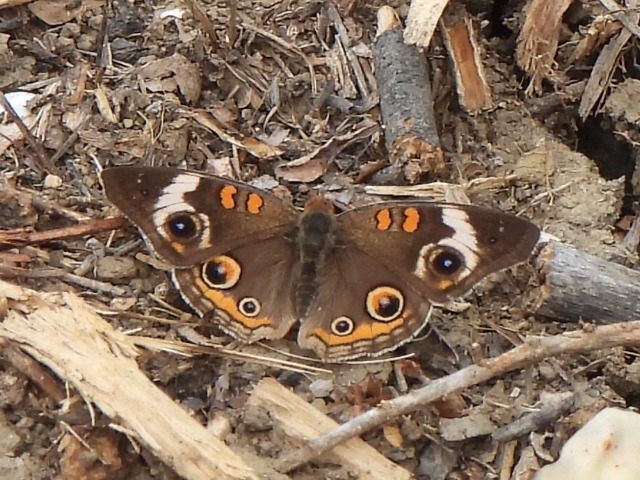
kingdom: Animalia
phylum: Arthropoda
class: Insecta
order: Lepidoptera
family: Nymphalidae
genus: Junonia
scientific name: Junonia coenia
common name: Common buckeye
